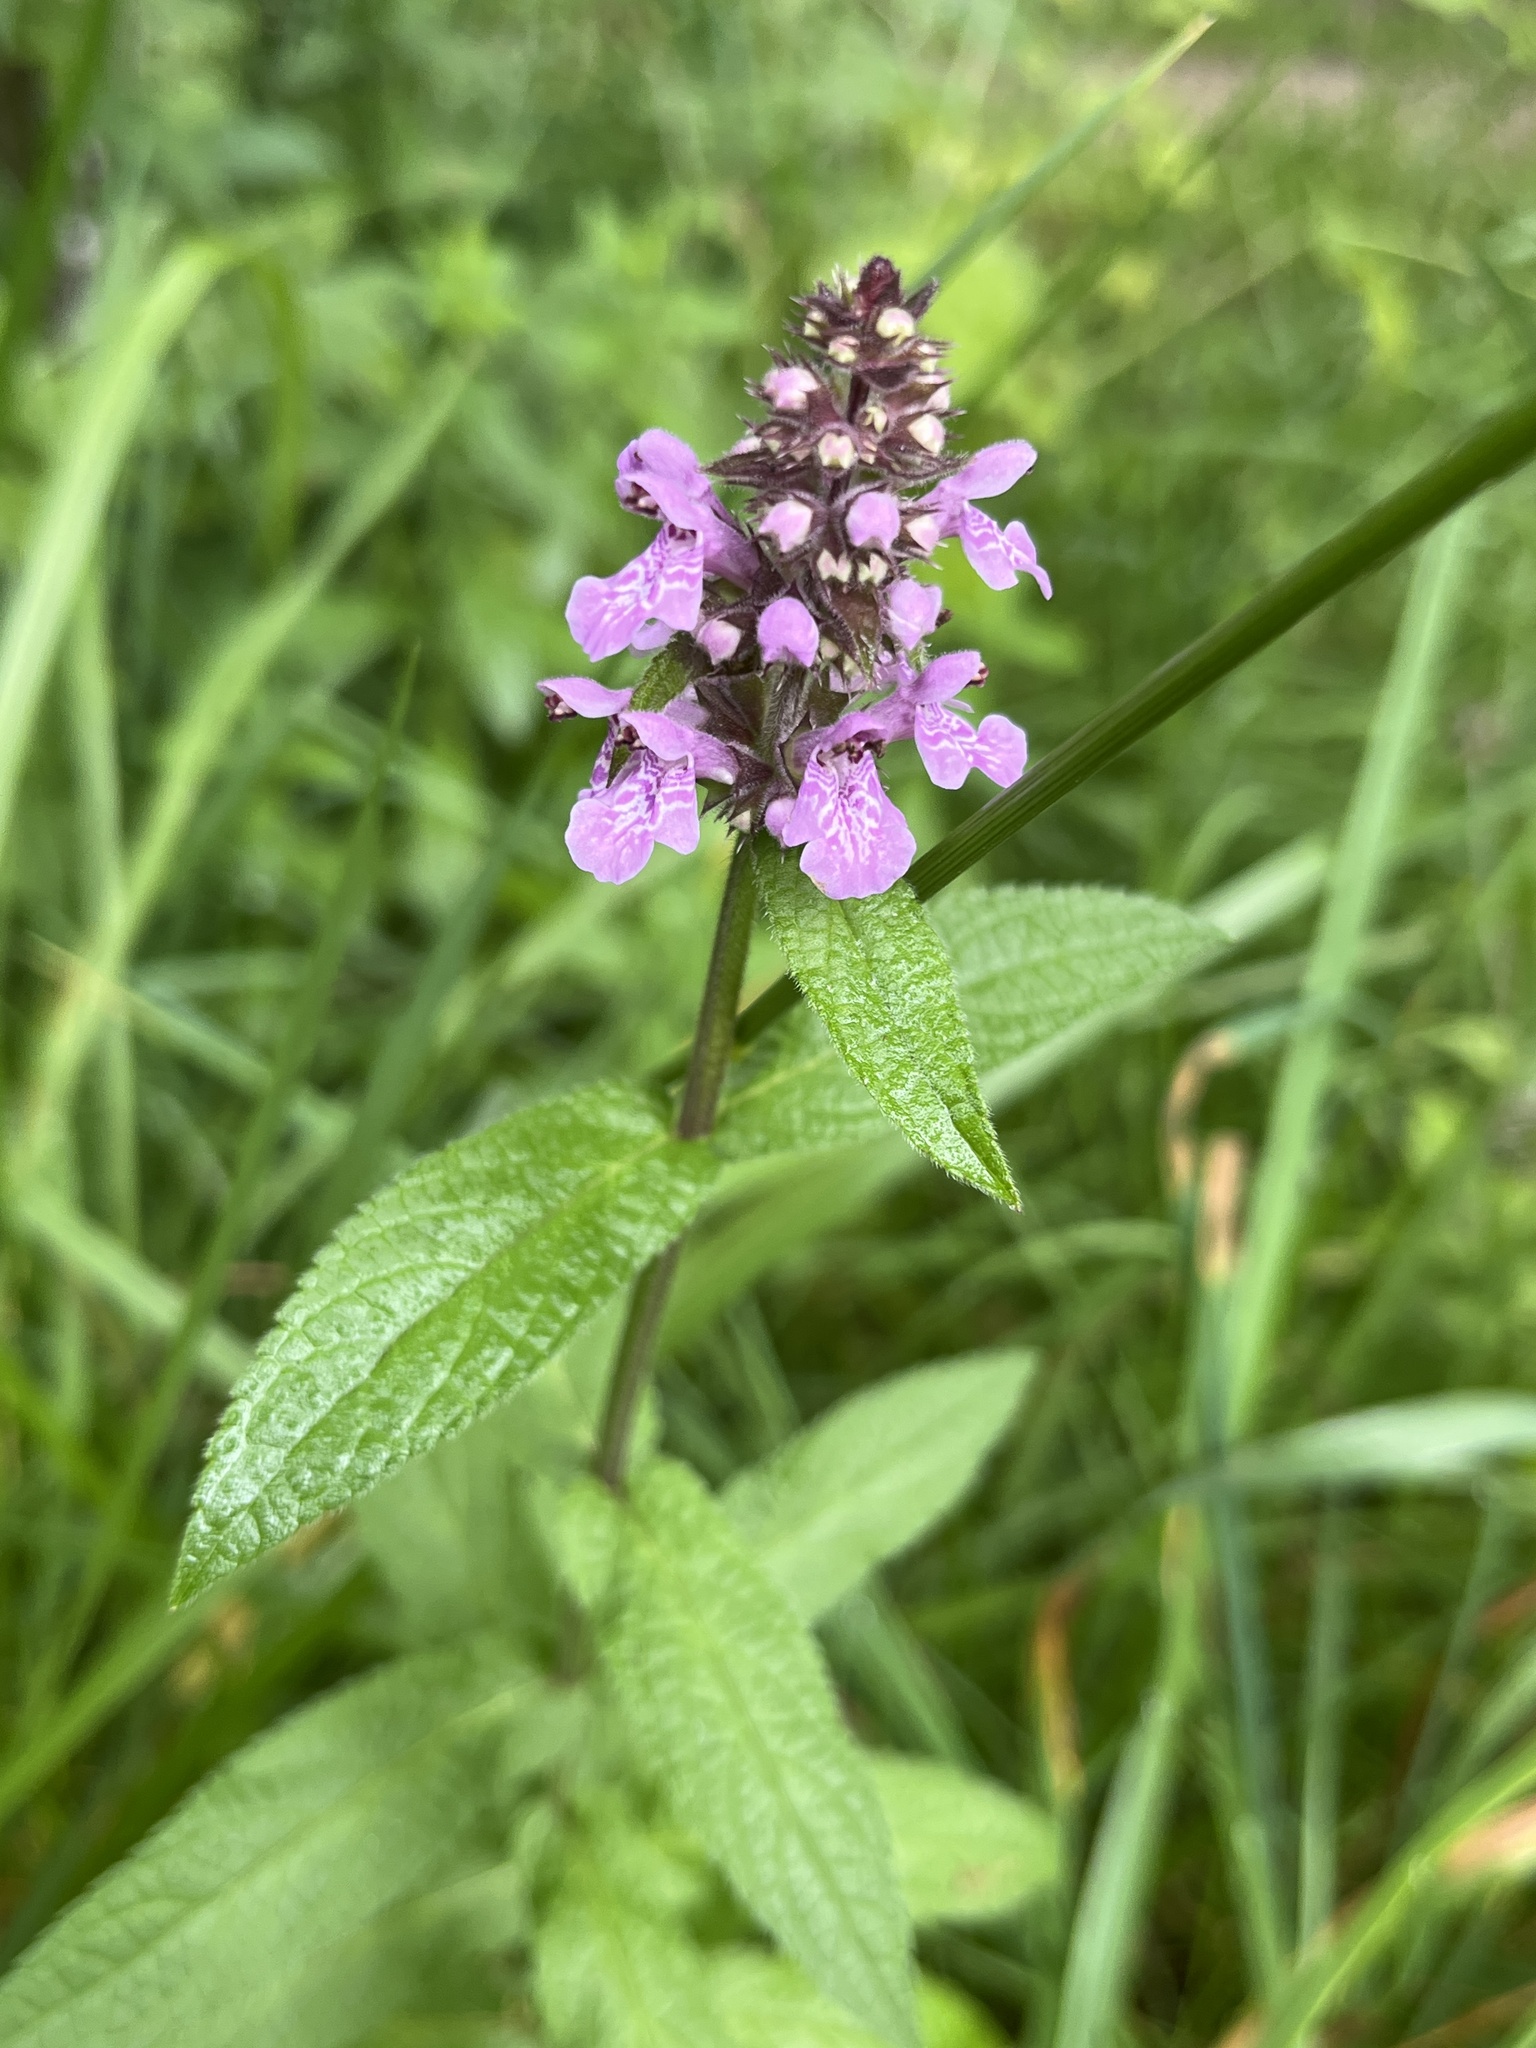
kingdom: Plantae
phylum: Tracheophyta
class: Magnoliopsida
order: Lamiales
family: Lamiaceae
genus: Stachys
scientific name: Stachys palustris
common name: Marsh woundwort
